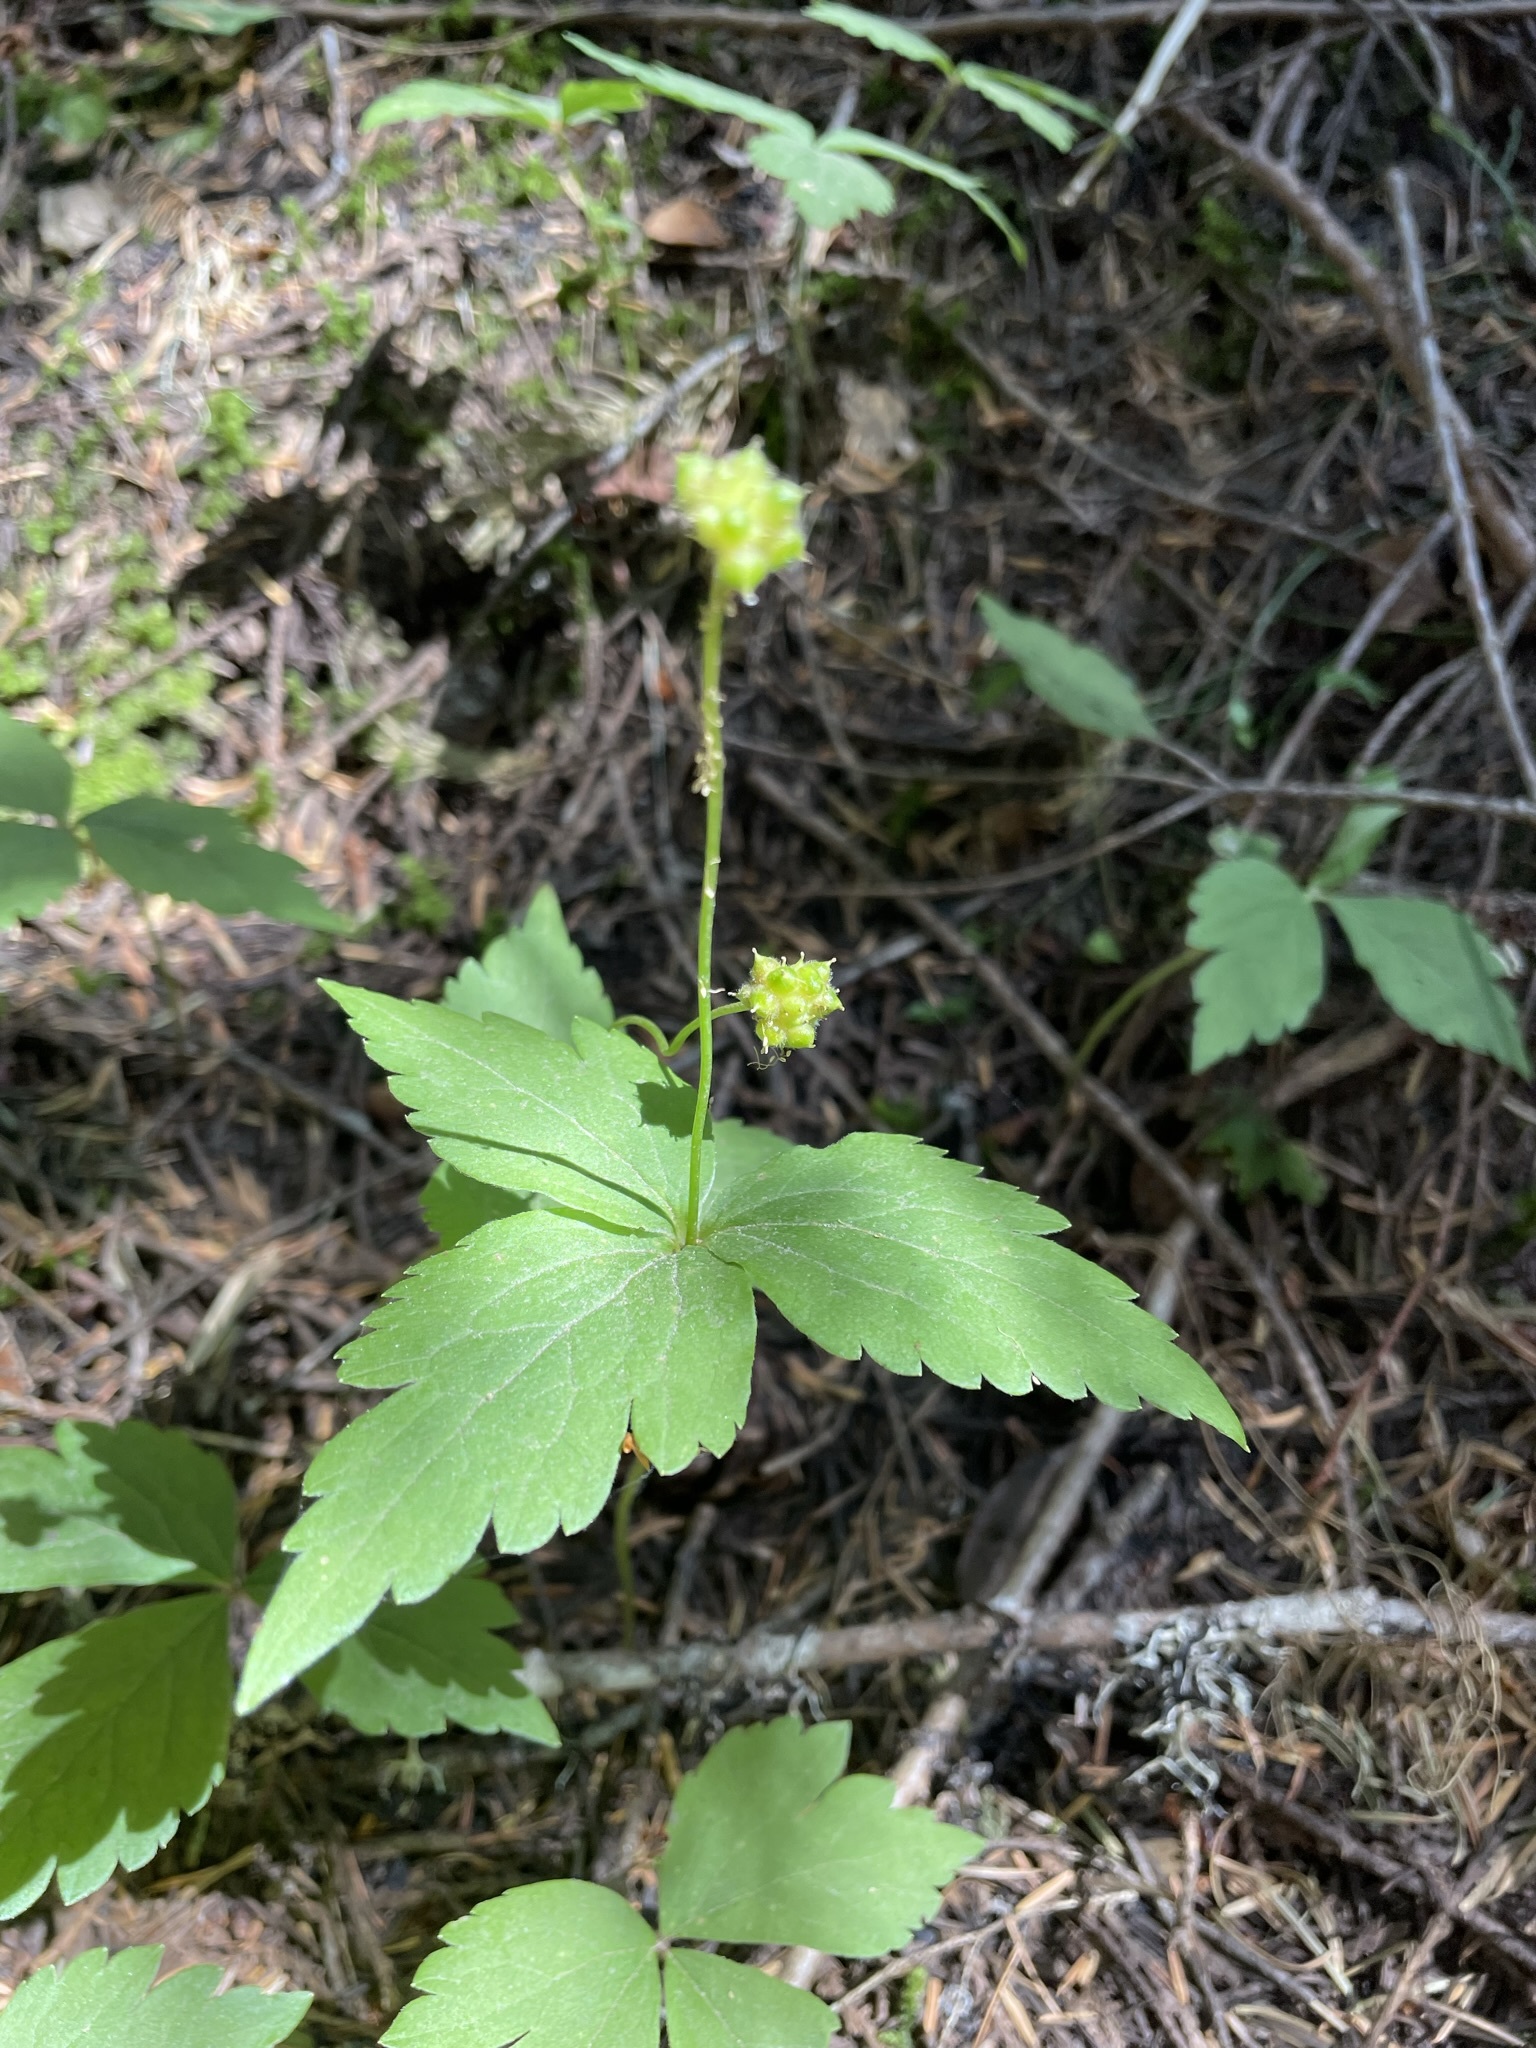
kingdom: Plantae
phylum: Tracheophyta
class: Magnoliopsida
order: Ranunculales
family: Ranunculaceae
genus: Anemonastrum
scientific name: Anemonastrum deltoideum
